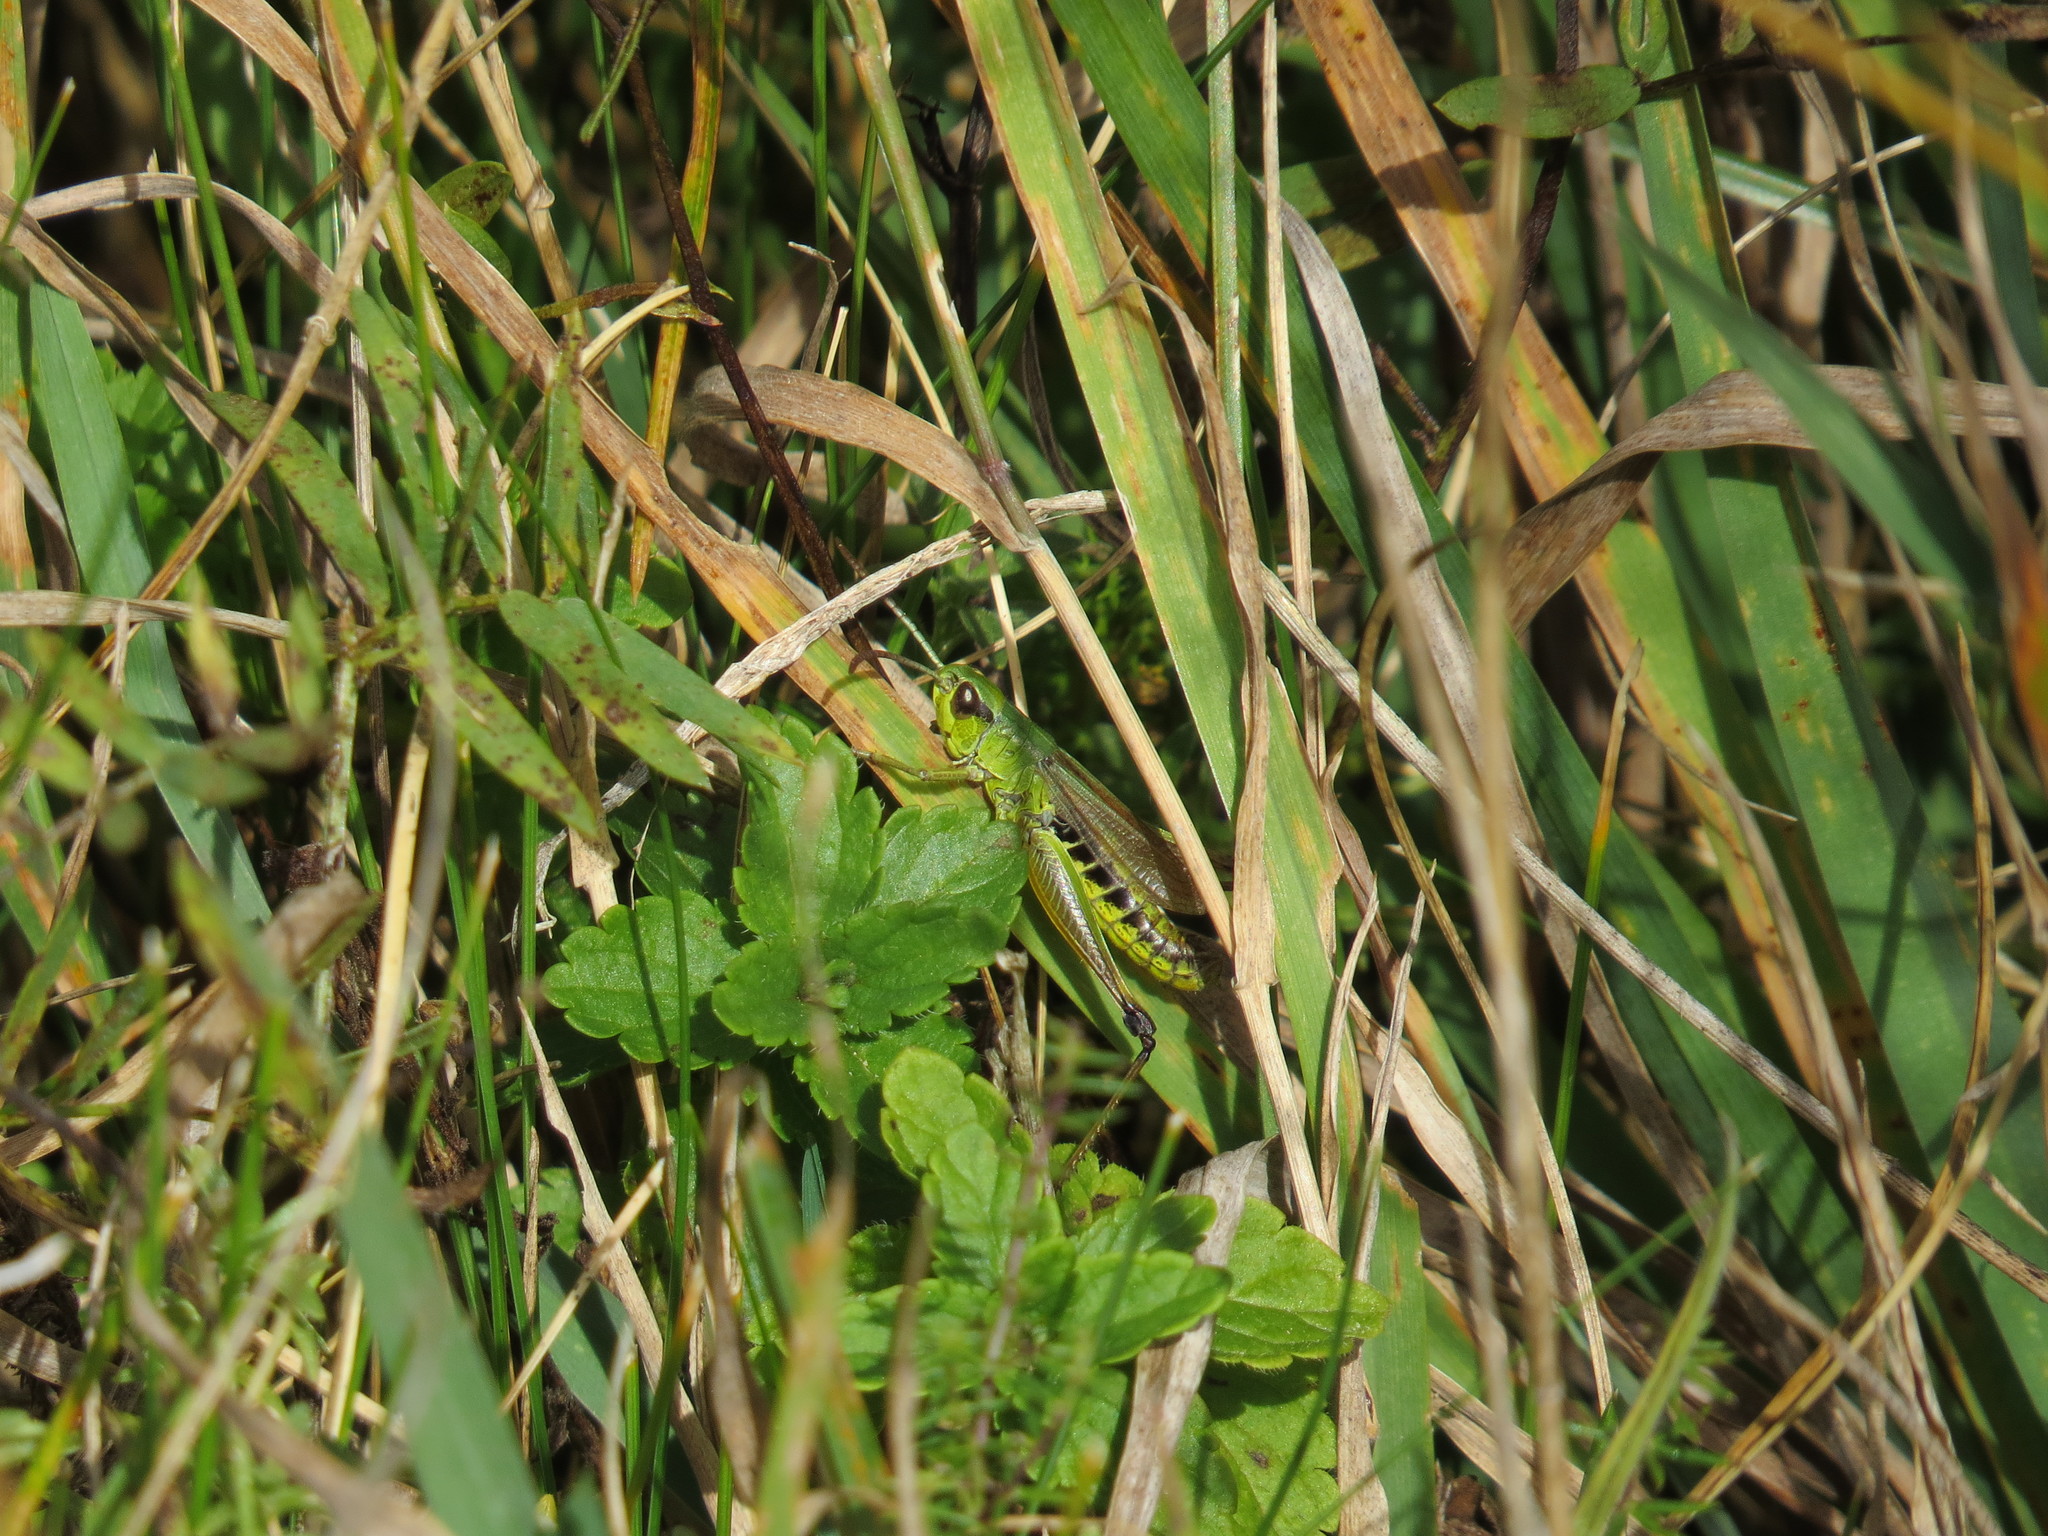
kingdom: Animalia
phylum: Arthropoda
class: Insecta
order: Orthoptera
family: Acrididae
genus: Pseudochorthippus
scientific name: Pseudochorthippus parallelus
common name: Meadow grasshopper
